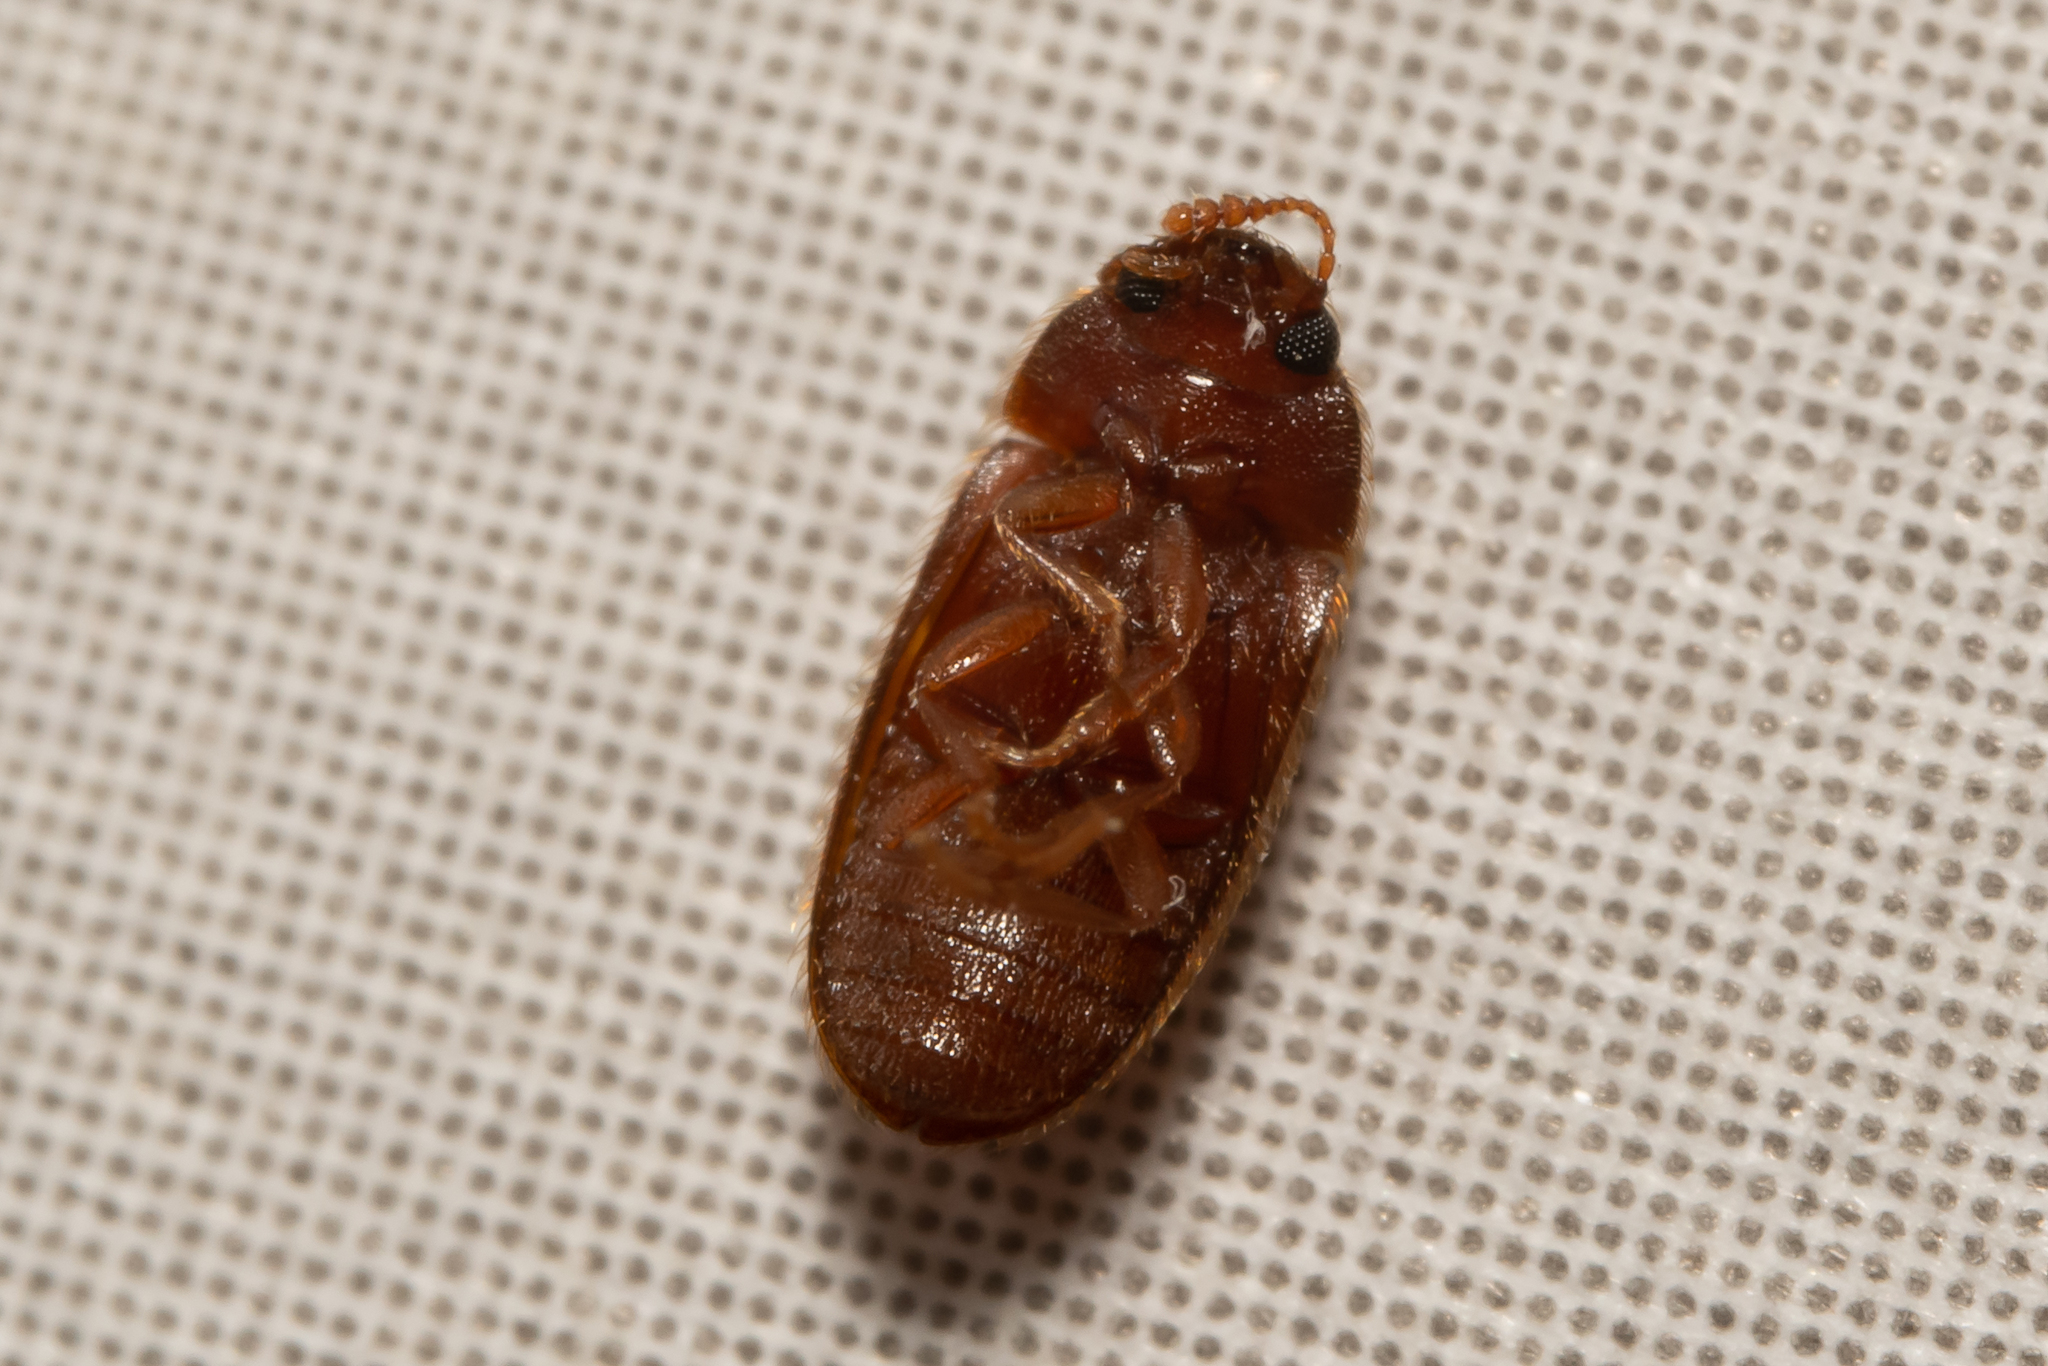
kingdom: Animalia
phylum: Arthropoda
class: Insecta
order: Coleoptera
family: Mycetophagidae
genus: Typhaea
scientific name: Typhaea stercorea
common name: Hairy fungus beetle
